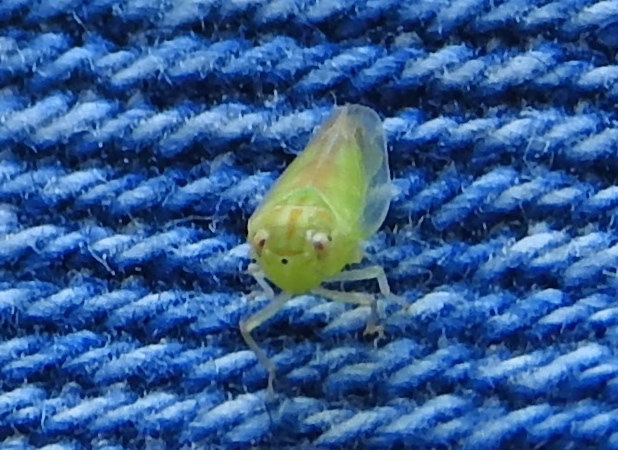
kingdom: Animalia
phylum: Arthropoda
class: Insecta
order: Hemiptera
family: Cicadellidae
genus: Neocoelidia
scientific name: Neocoelidia
